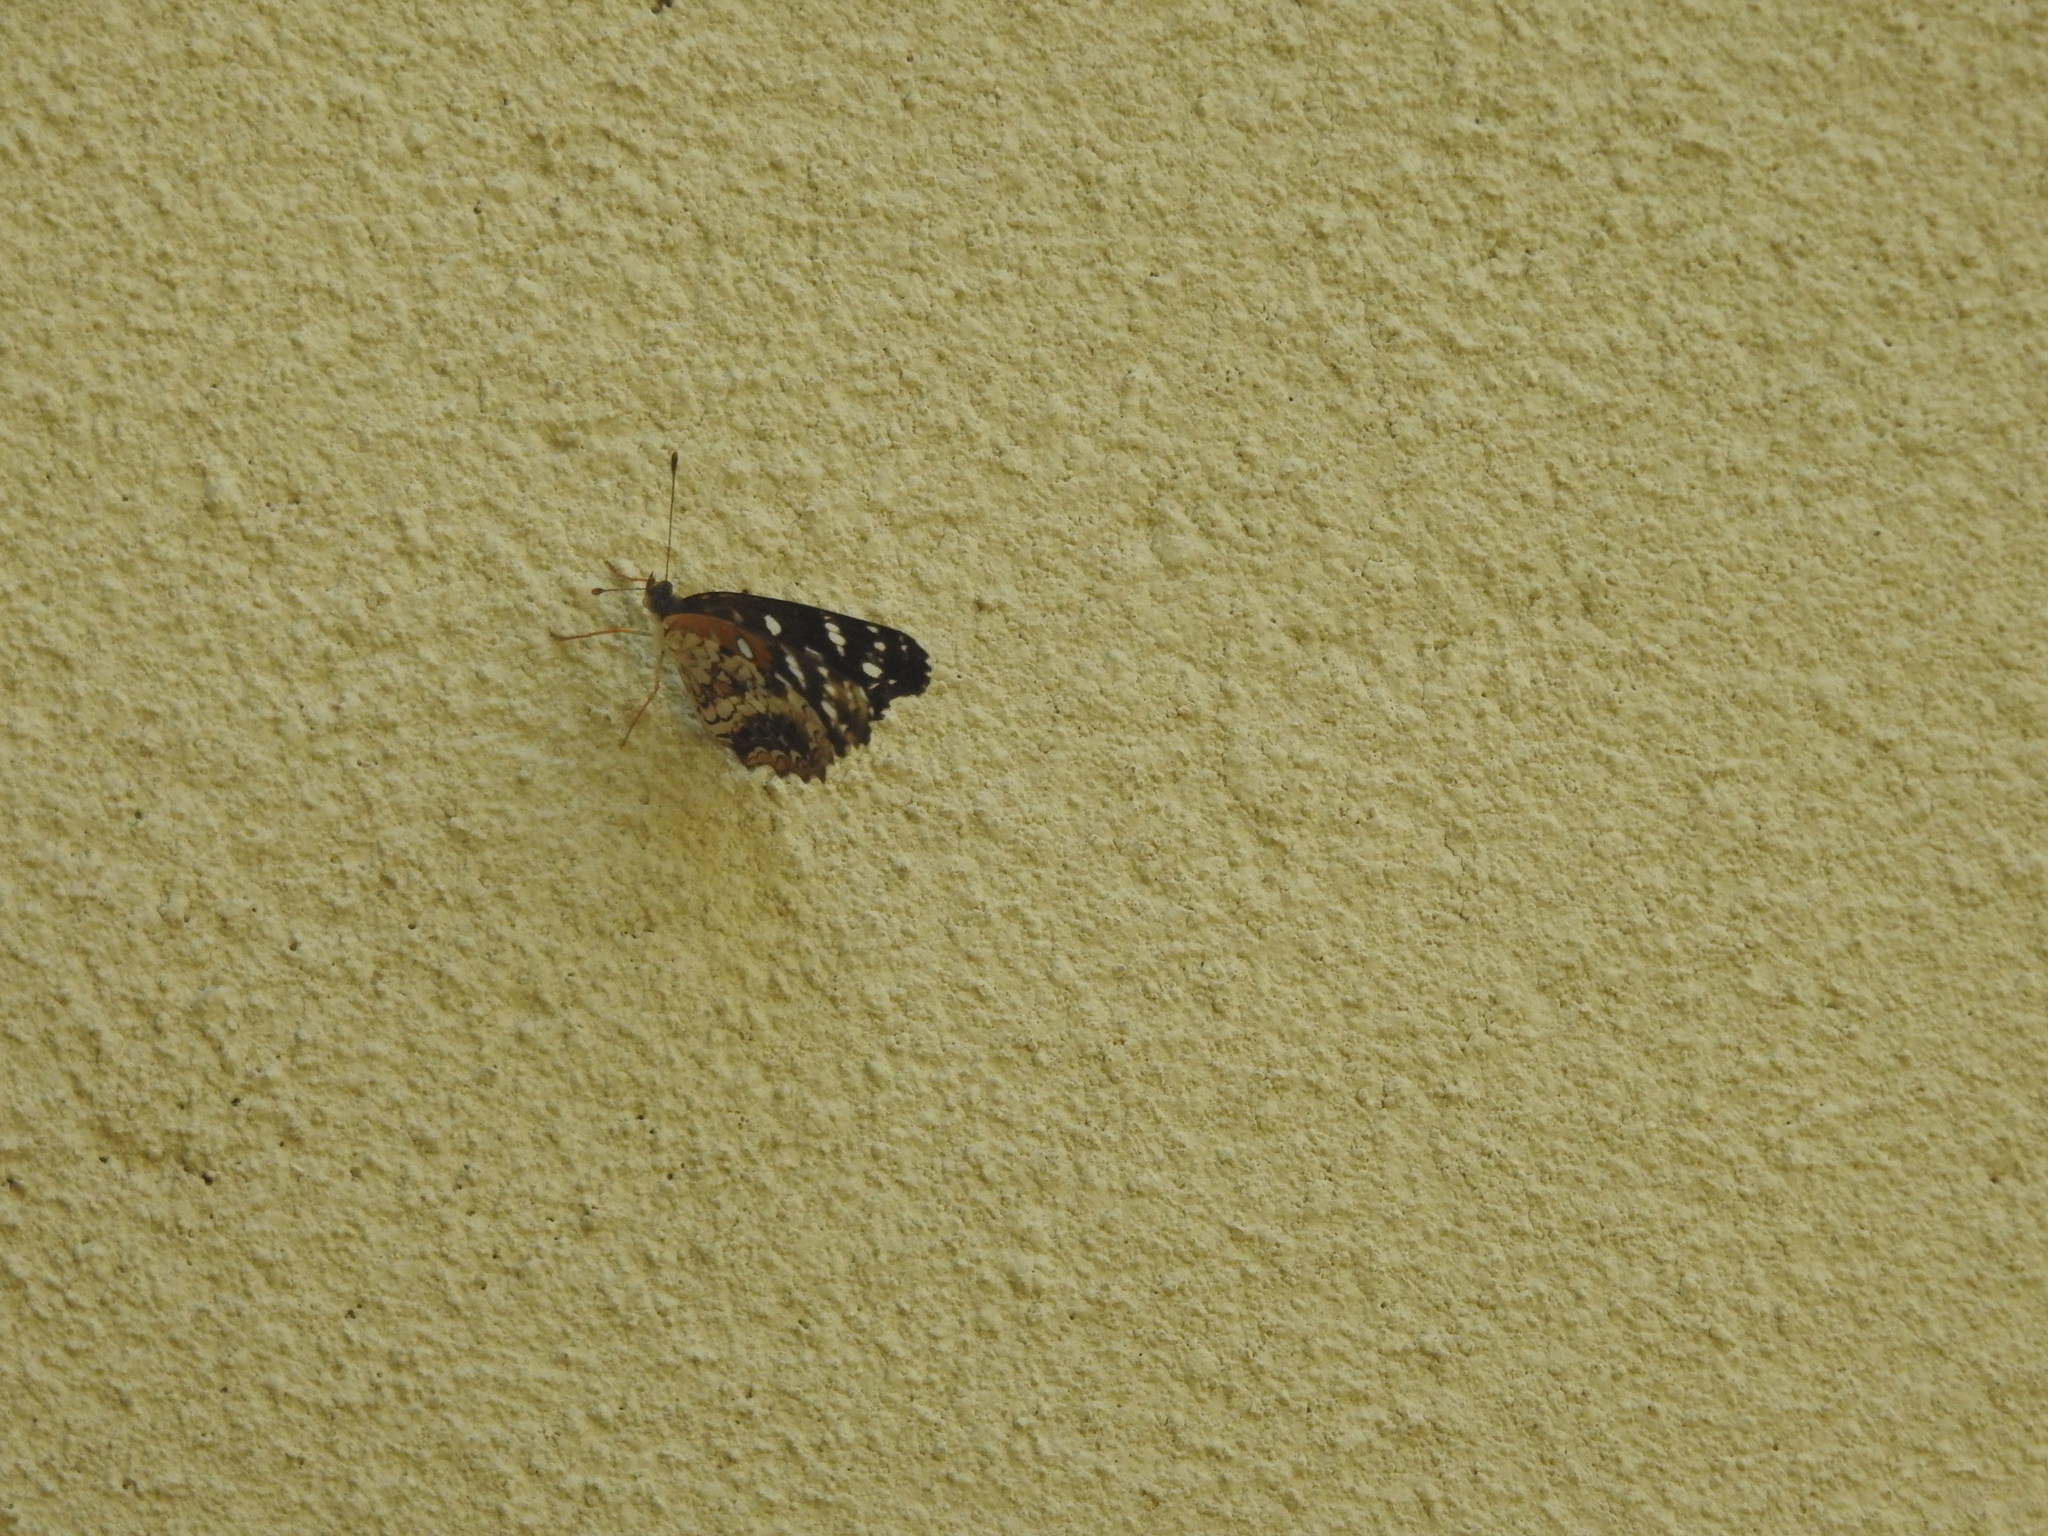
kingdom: Animalia
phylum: Arthropoda
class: Insecta
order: Lepidoptera
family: Nymphalidae
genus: Ortilia
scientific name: Ortilia ithra
